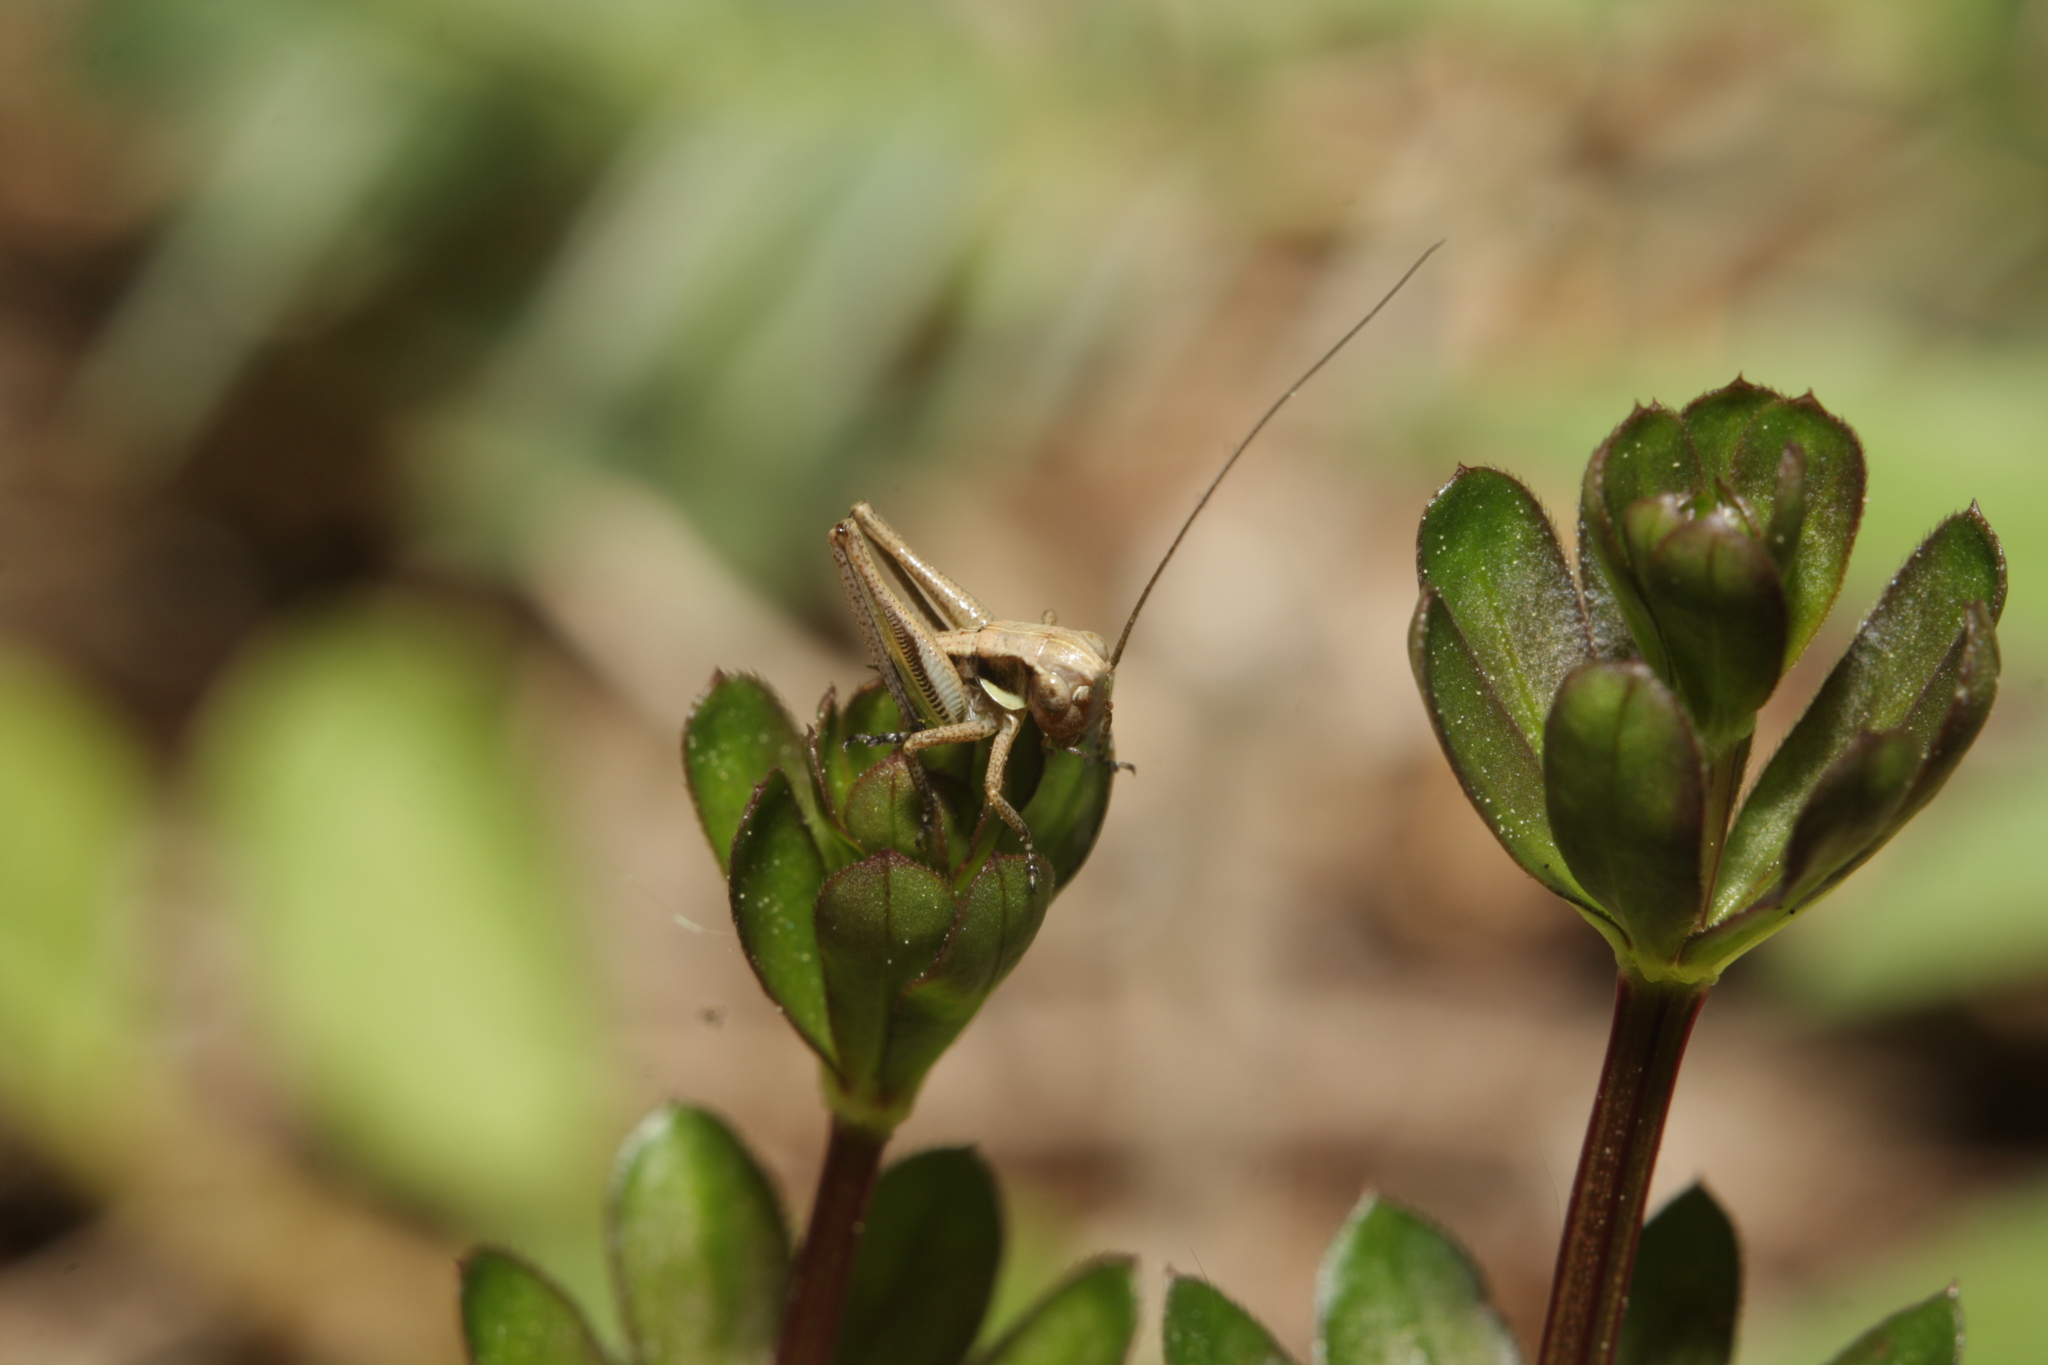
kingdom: Animalia
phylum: Arthropoda
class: Insecta
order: Orthoptera
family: Tettigoniidae
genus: Platycleis
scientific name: Platycleis grisea
